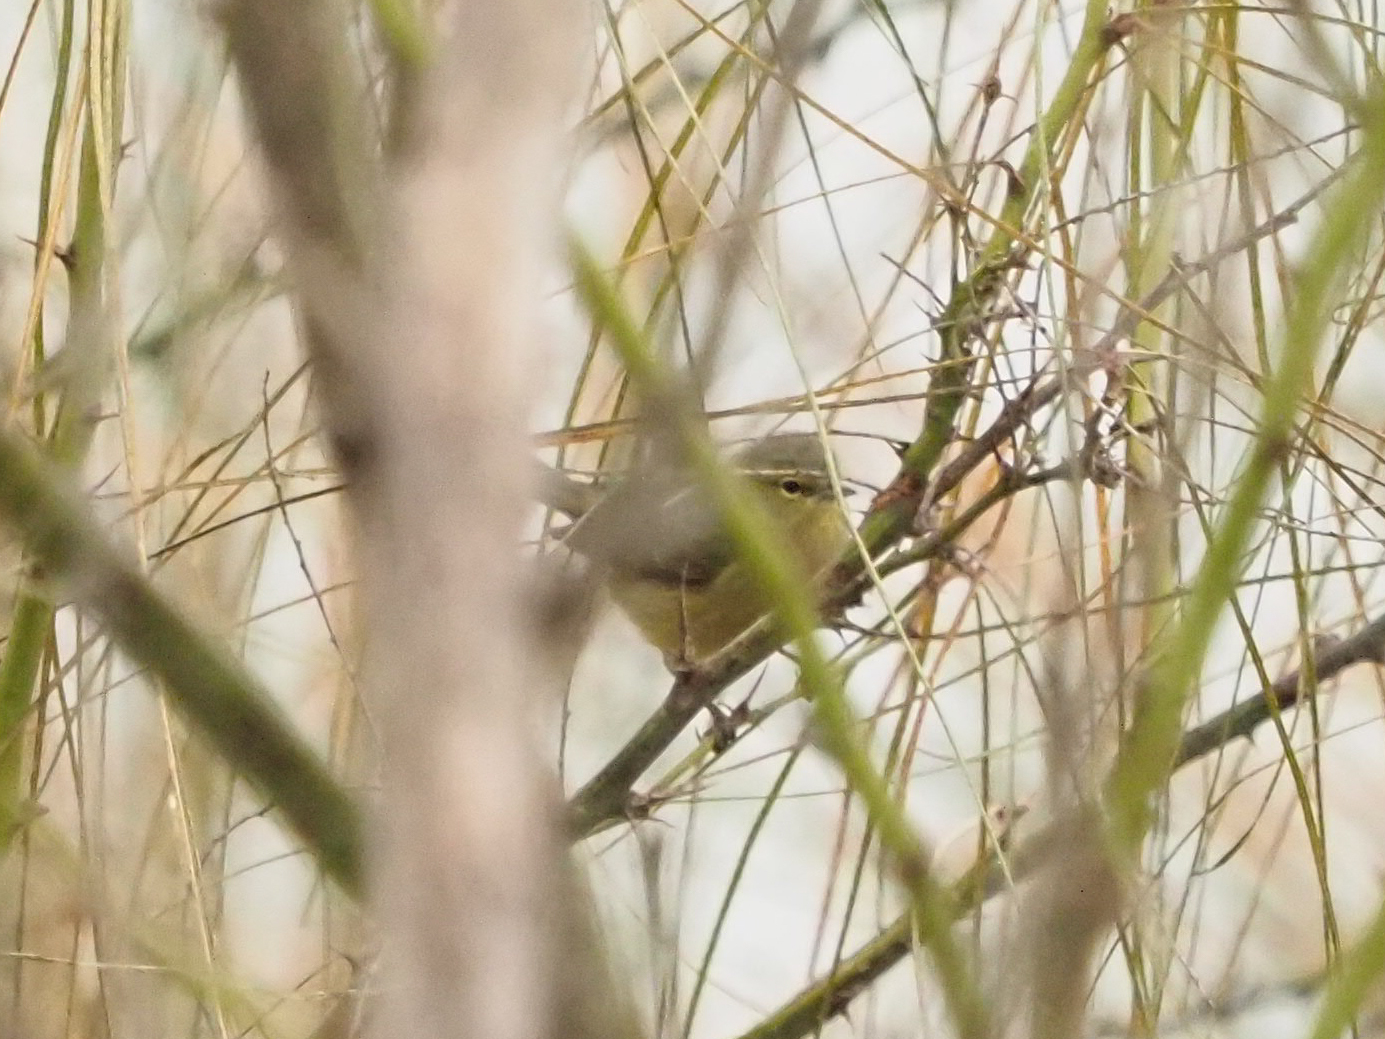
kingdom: Animalia
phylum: Chordata
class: Aves
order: Passeriformes
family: Parulidae
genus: Leiothlypis
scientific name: Leiothlypis celata
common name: Orange-crowned warbler
